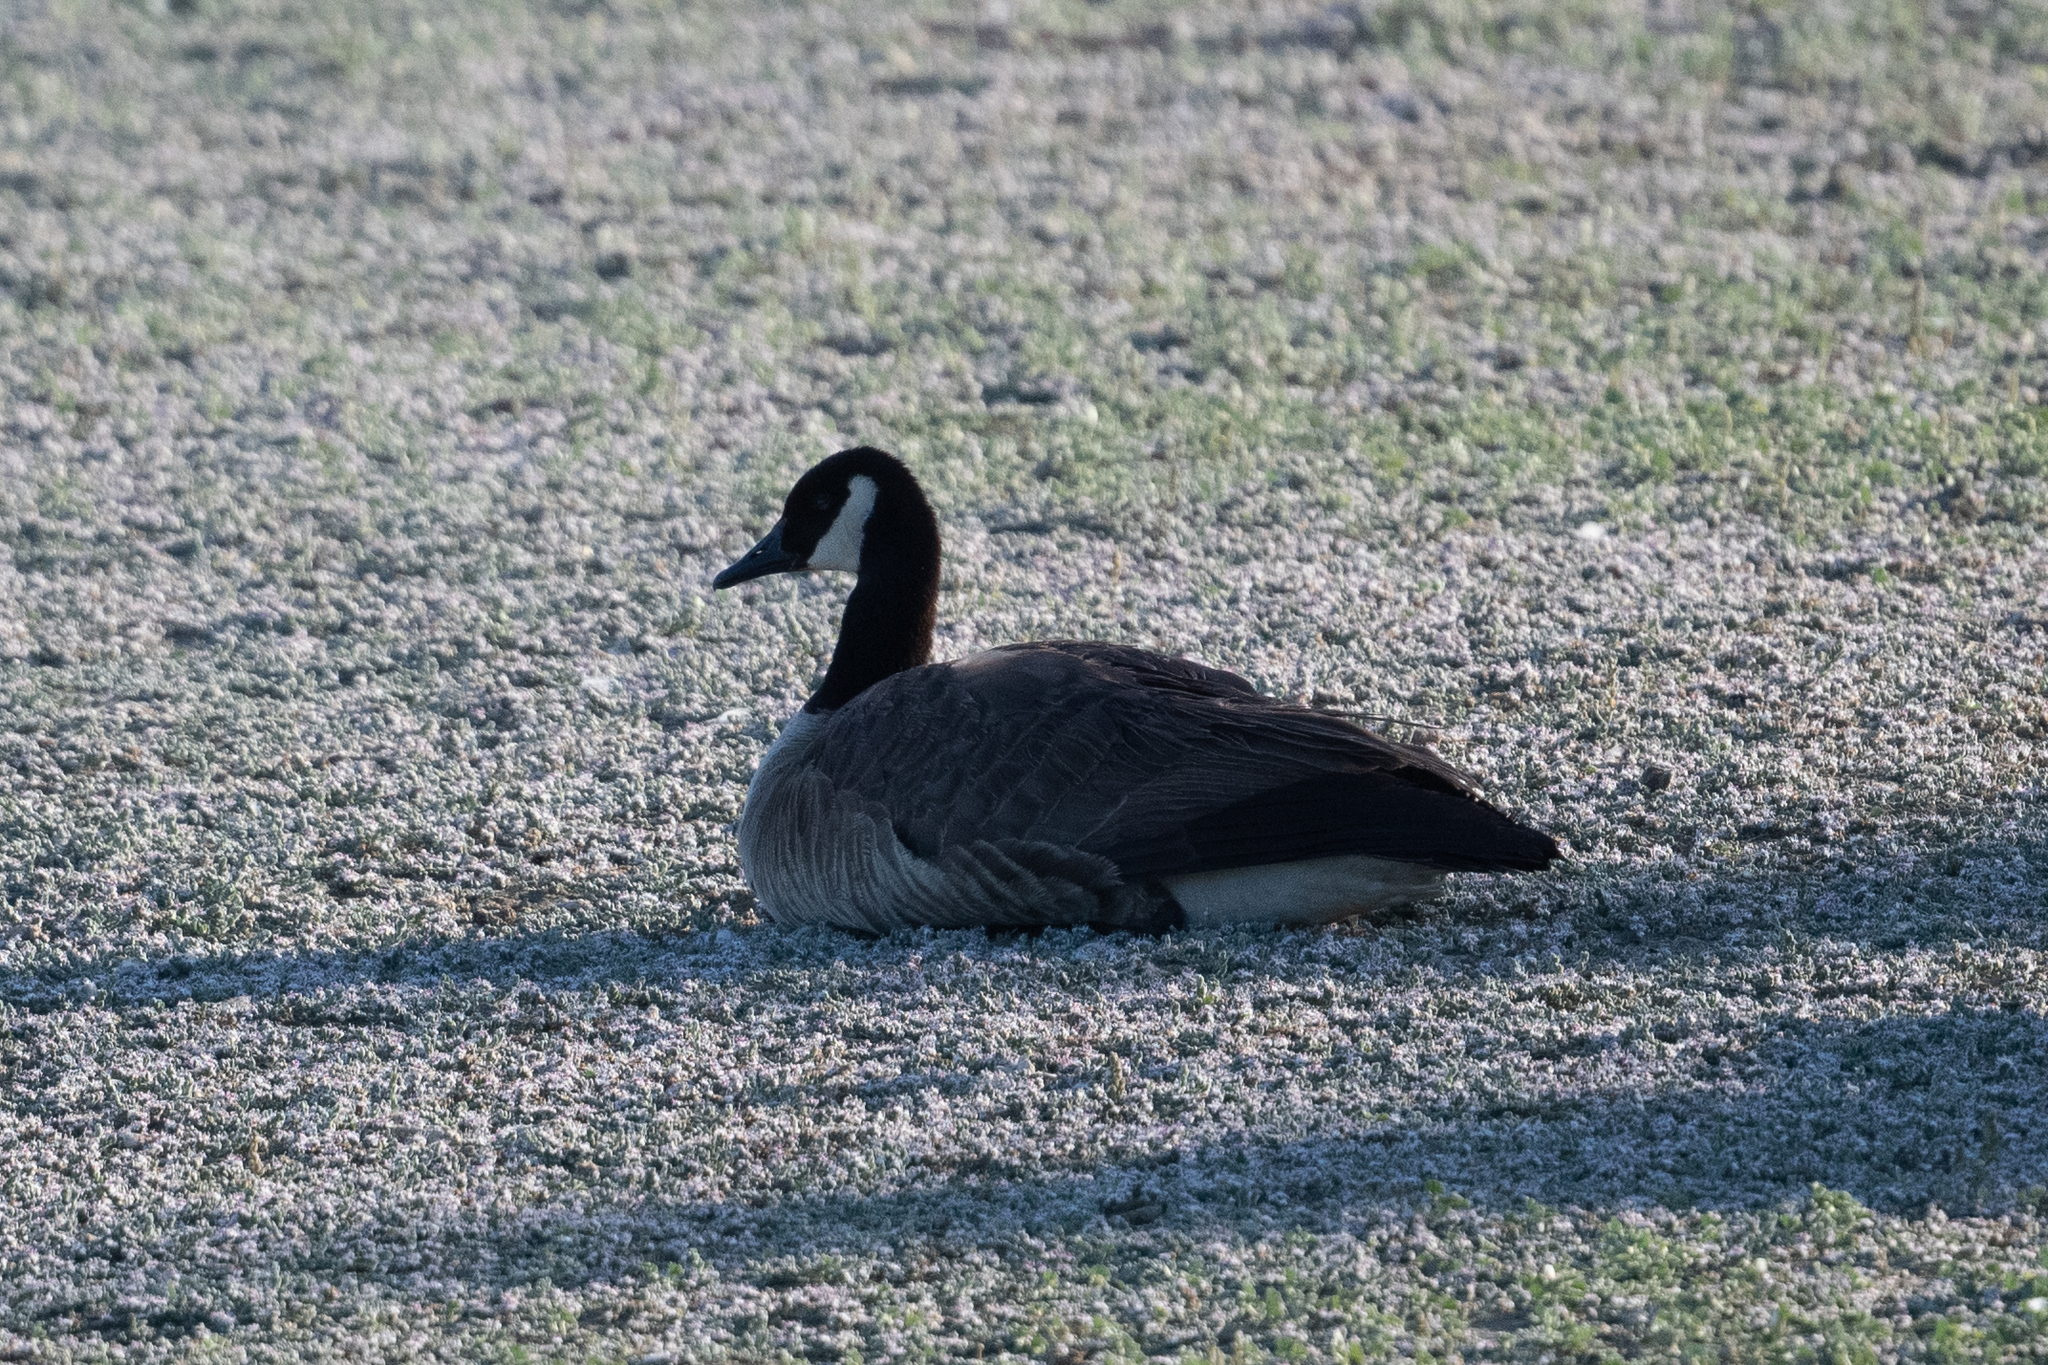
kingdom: Animalia
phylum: Chordata
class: Aves
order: Anseriformes
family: Anatidae
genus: Branta
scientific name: Branta canadensis
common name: Canada goose
